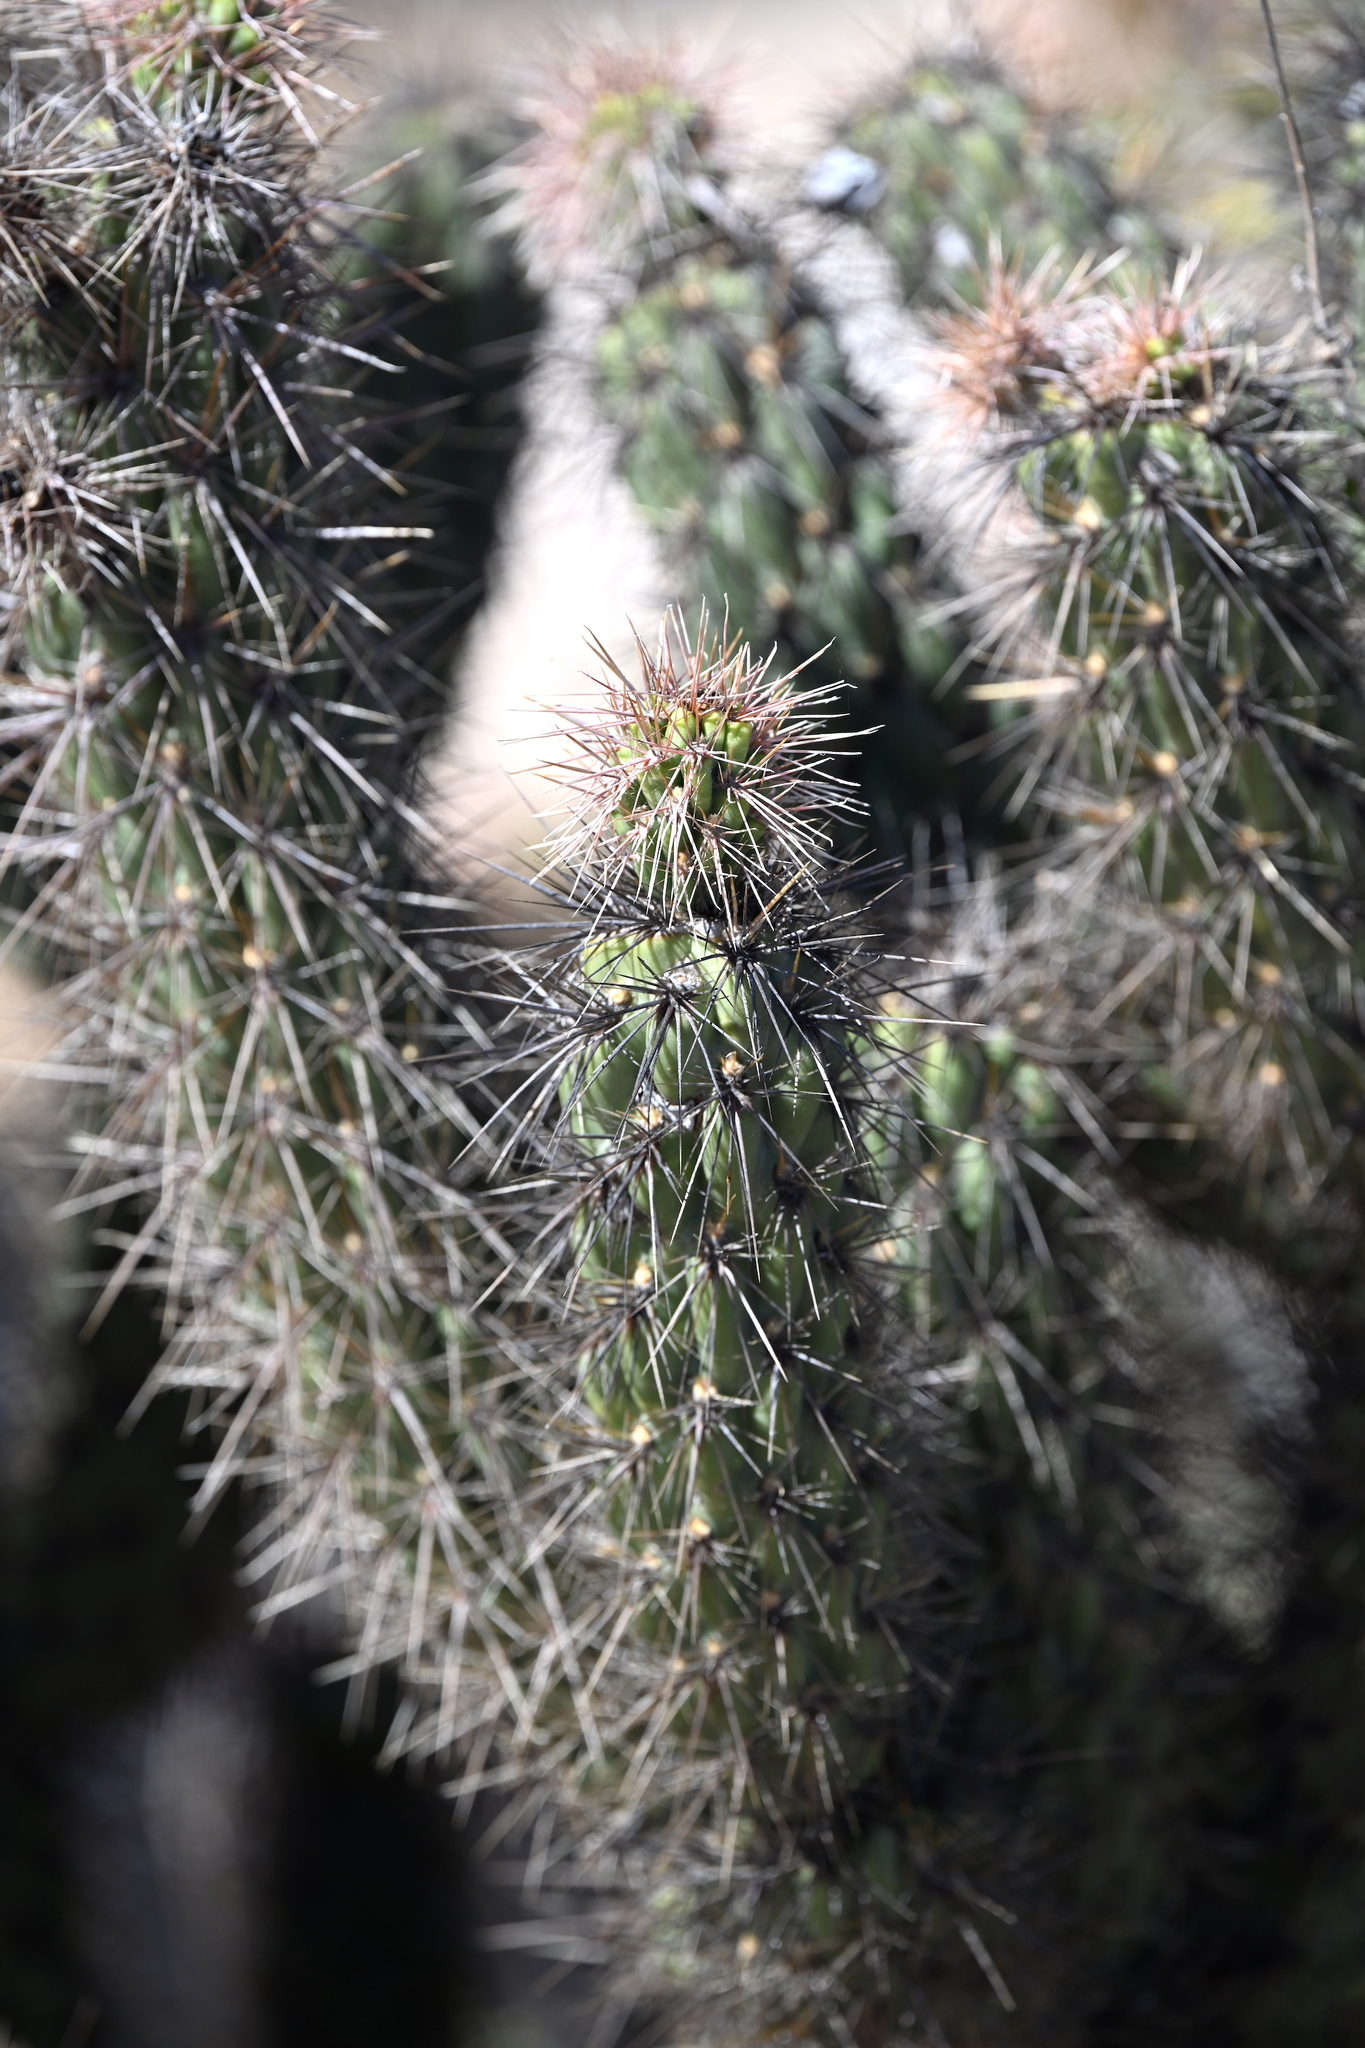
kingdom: Plantae
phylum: Tracheophyta
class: Magnoliopsida
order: Caryophyllales
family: Cactaceae
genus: Cylindropuntia
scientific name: Cylindropuntia ganderi
